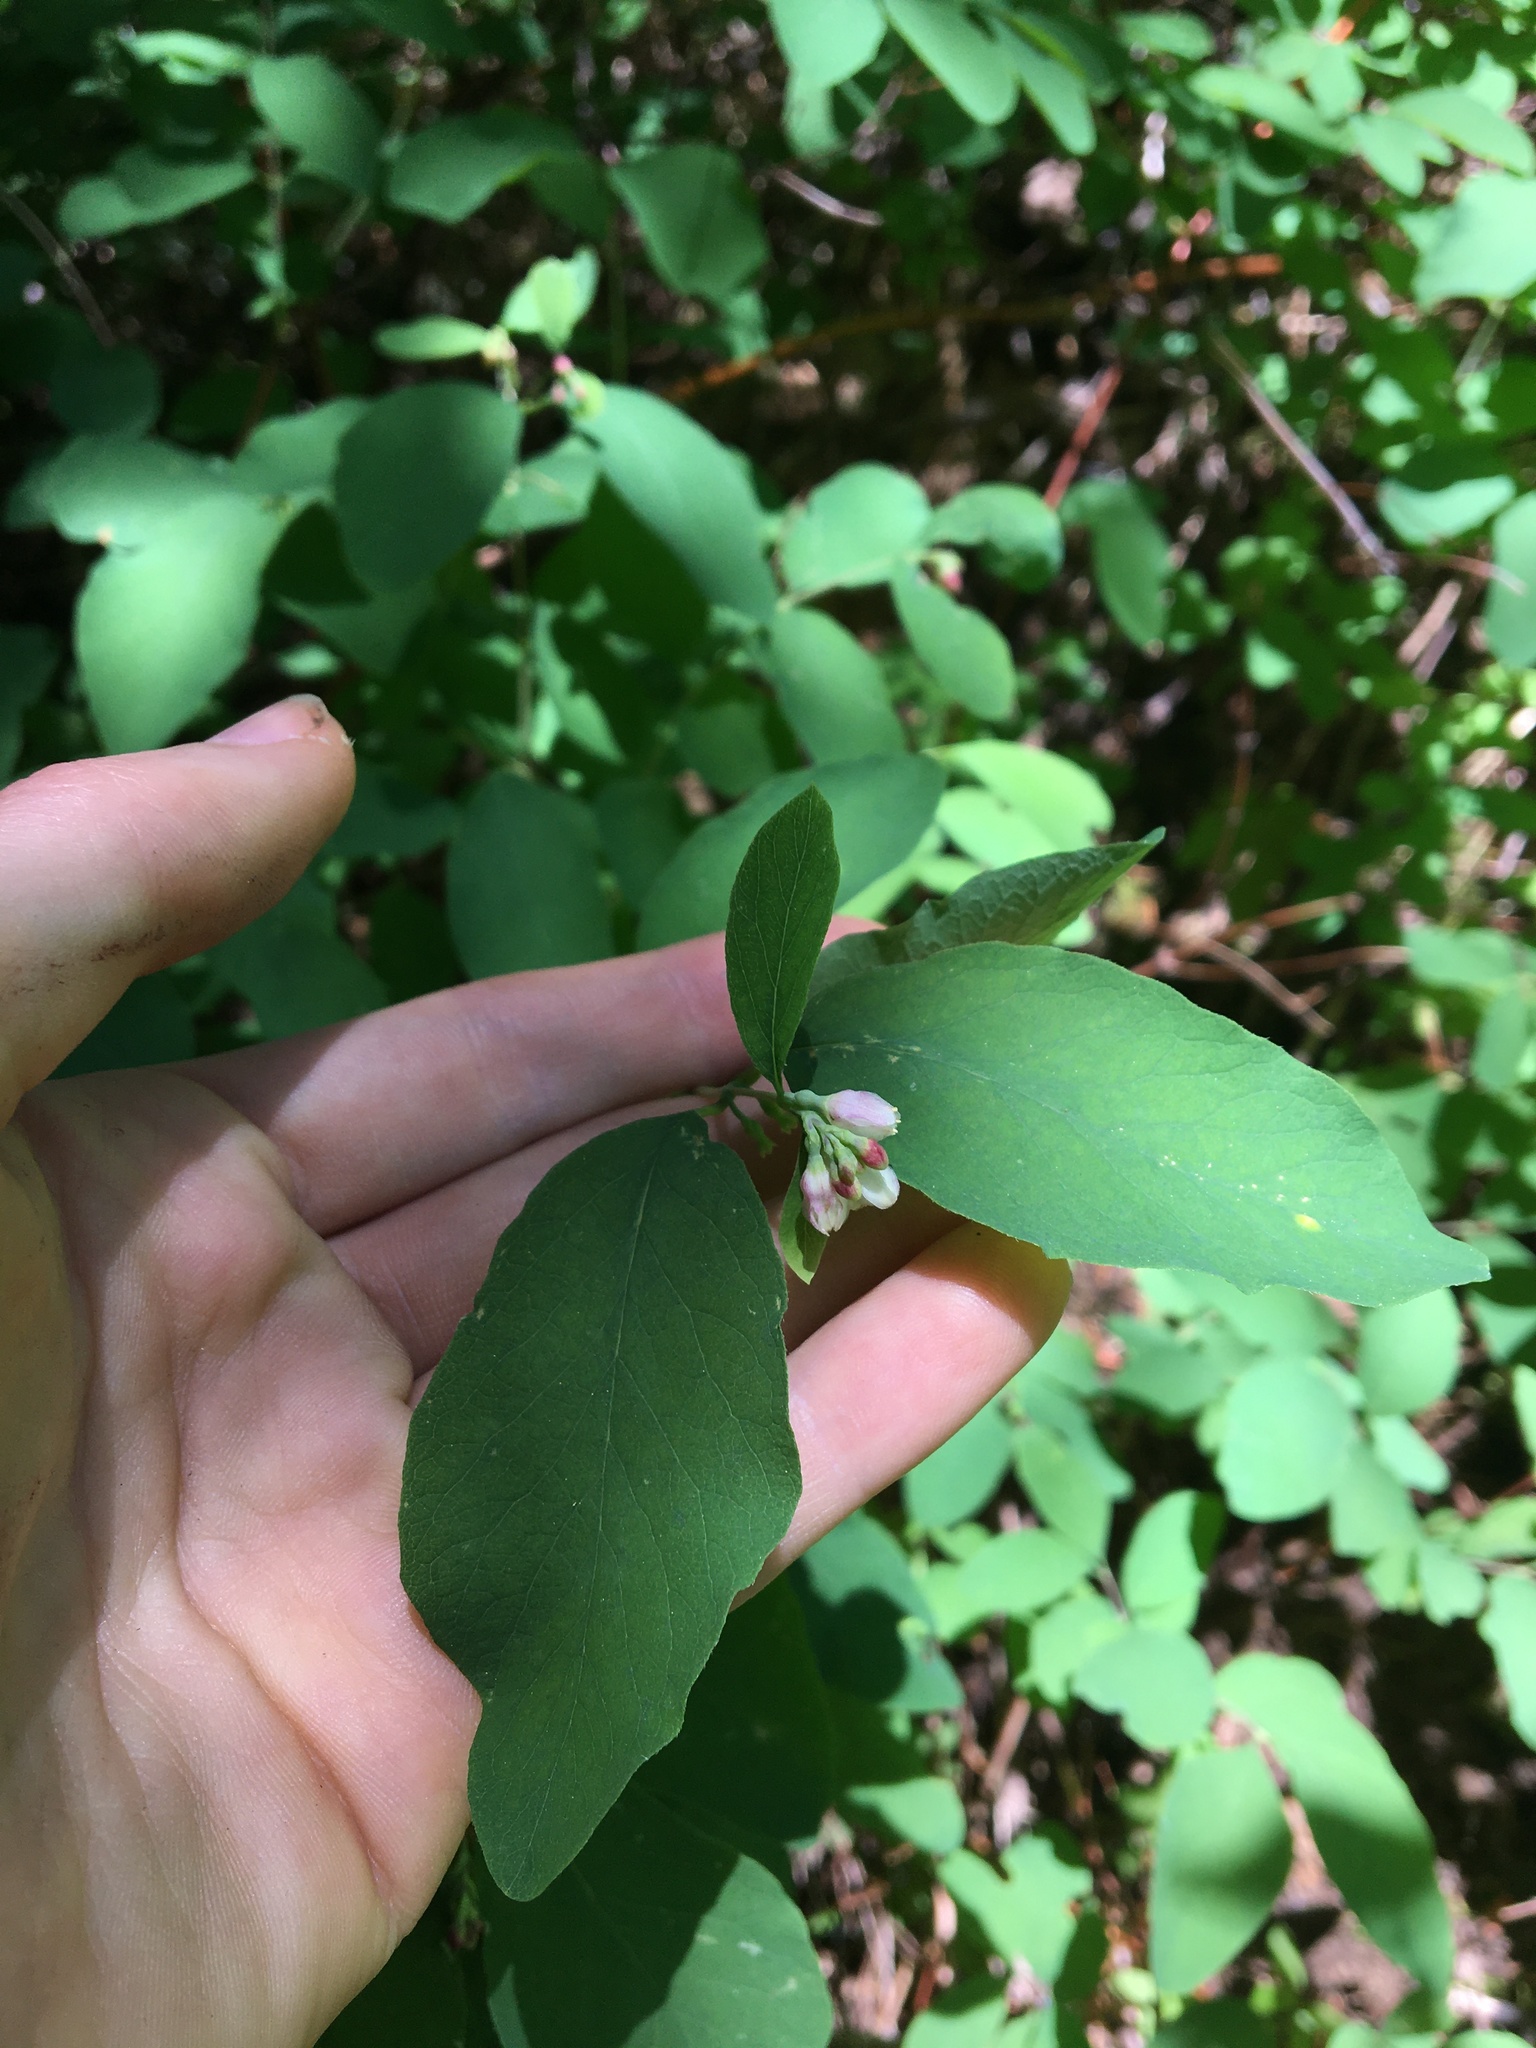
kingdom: Plantae
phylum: Tracheophyta
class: Magnoliopsida
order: Dipsacales
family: Caprifoliaceae
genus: Symphoricarpos
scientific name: Symphoricarpos albus
